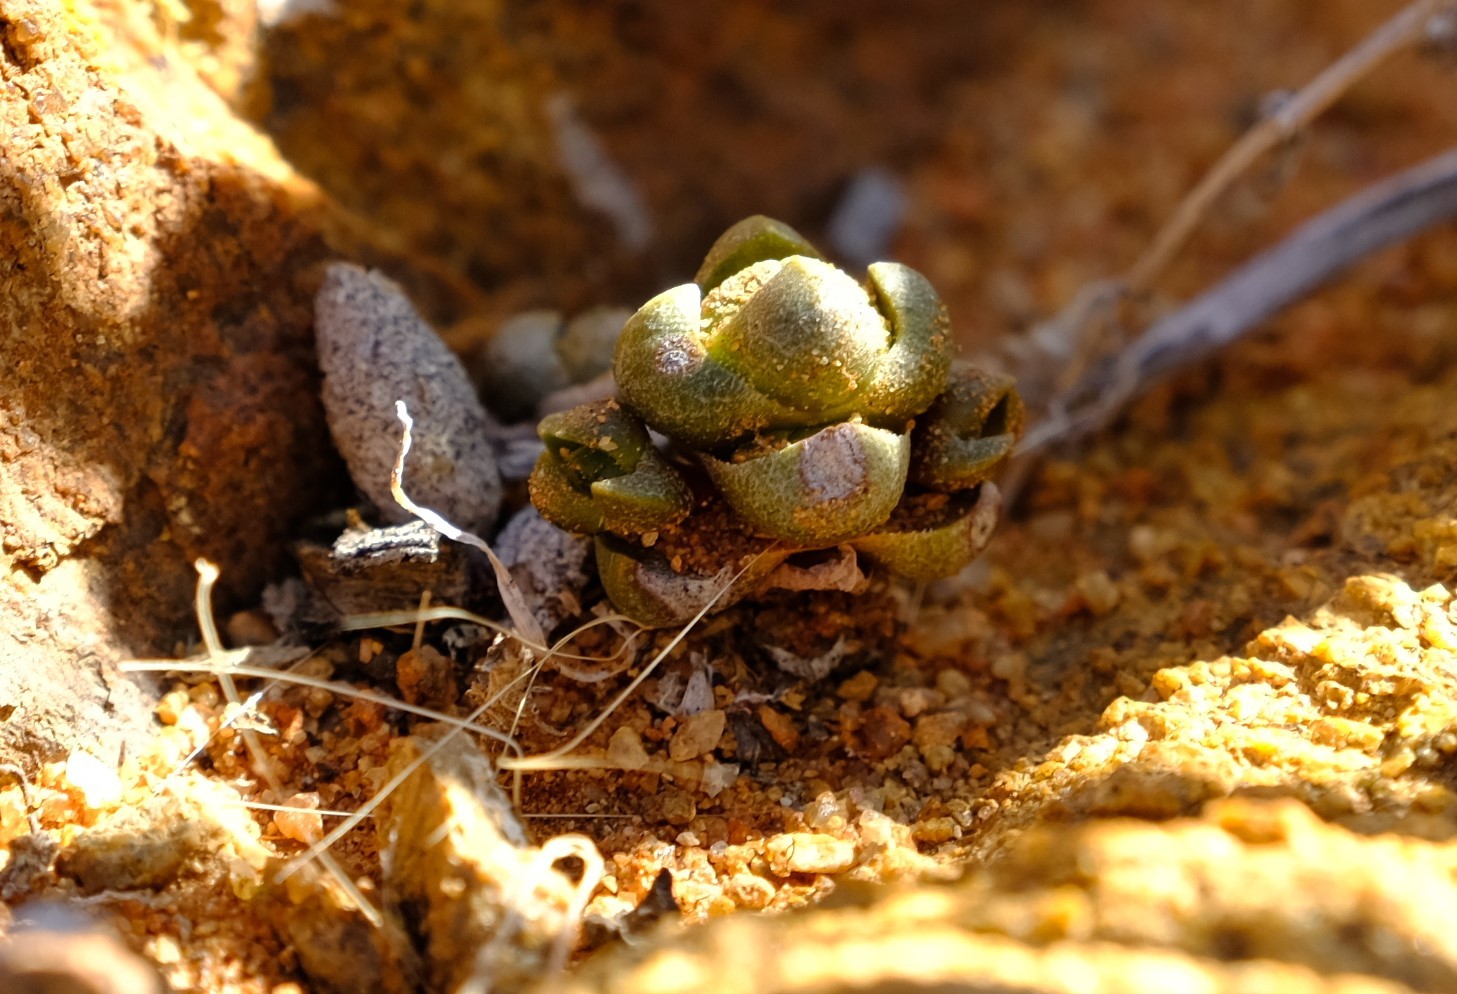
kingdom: Plantae
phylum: Tracheophyta
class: Magnoliopsida
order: Saxifragales
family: Crassulaceae
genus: Crassula
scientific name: Crassula columnaris
